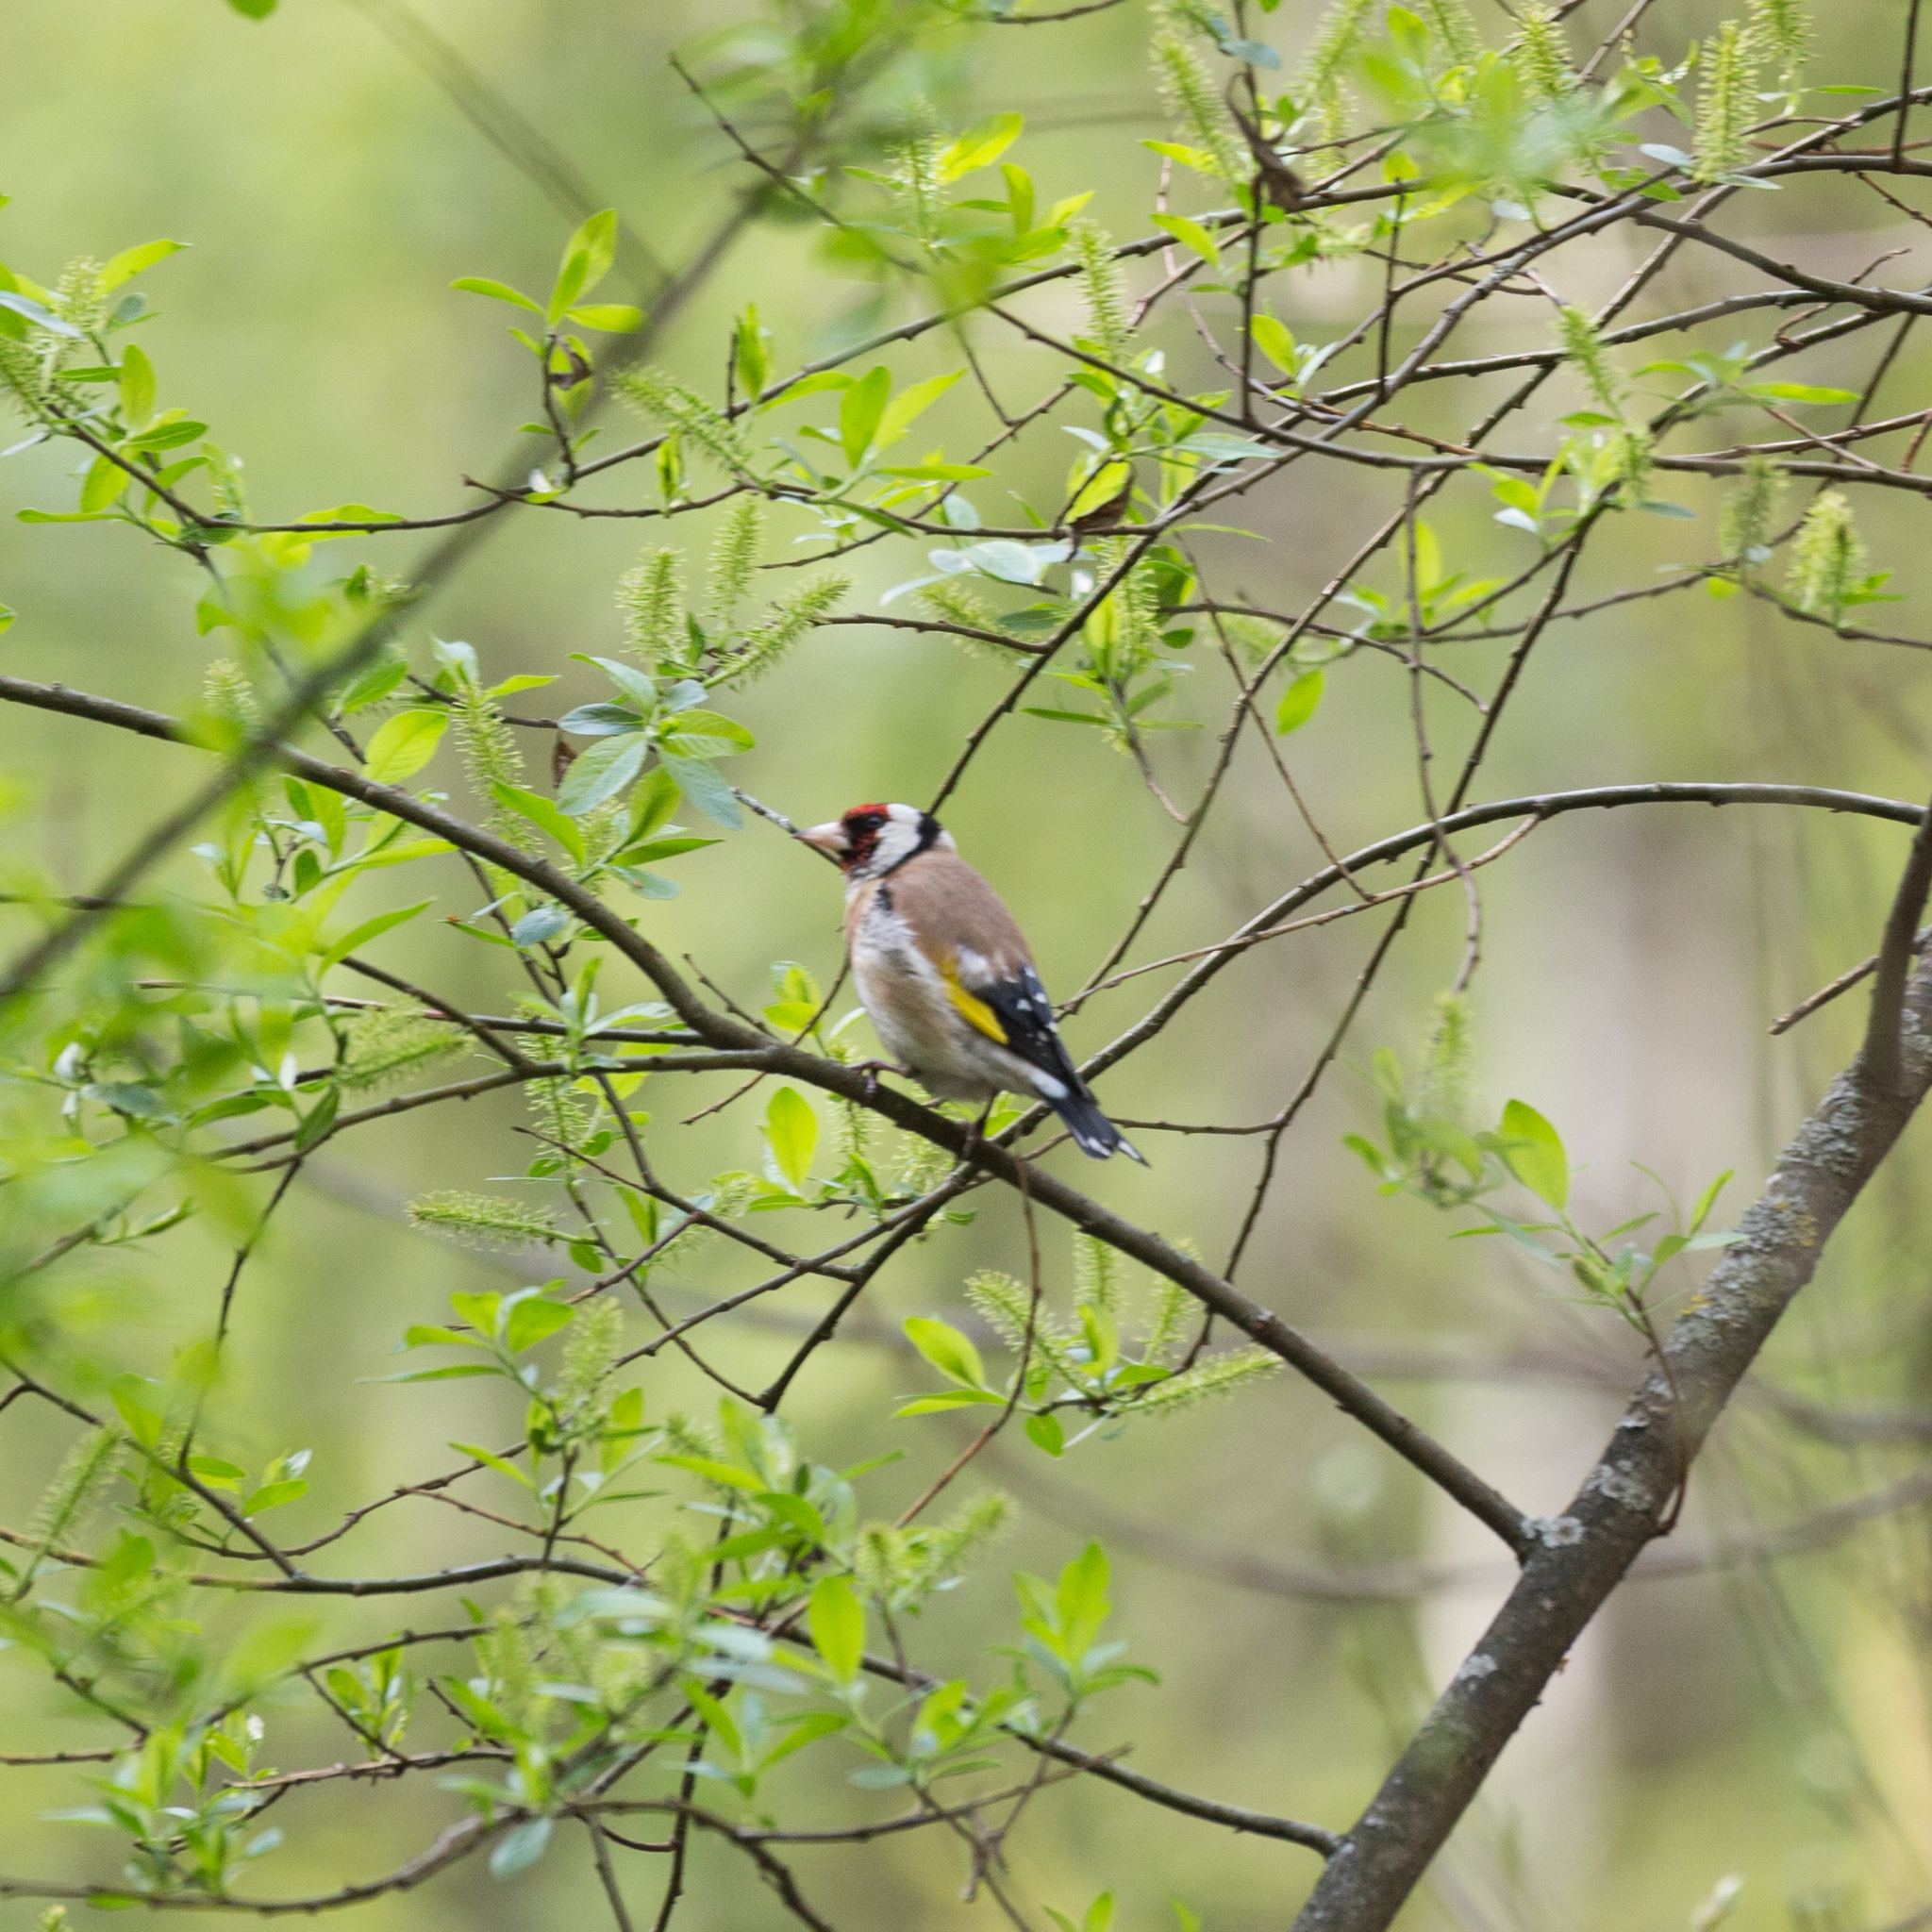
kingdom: Animalia
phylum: Chordata
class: Aves
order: Passeriformes
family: Fringillidae
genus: Carduelis
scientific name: Carduelis carduelis
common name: European goldfinch
